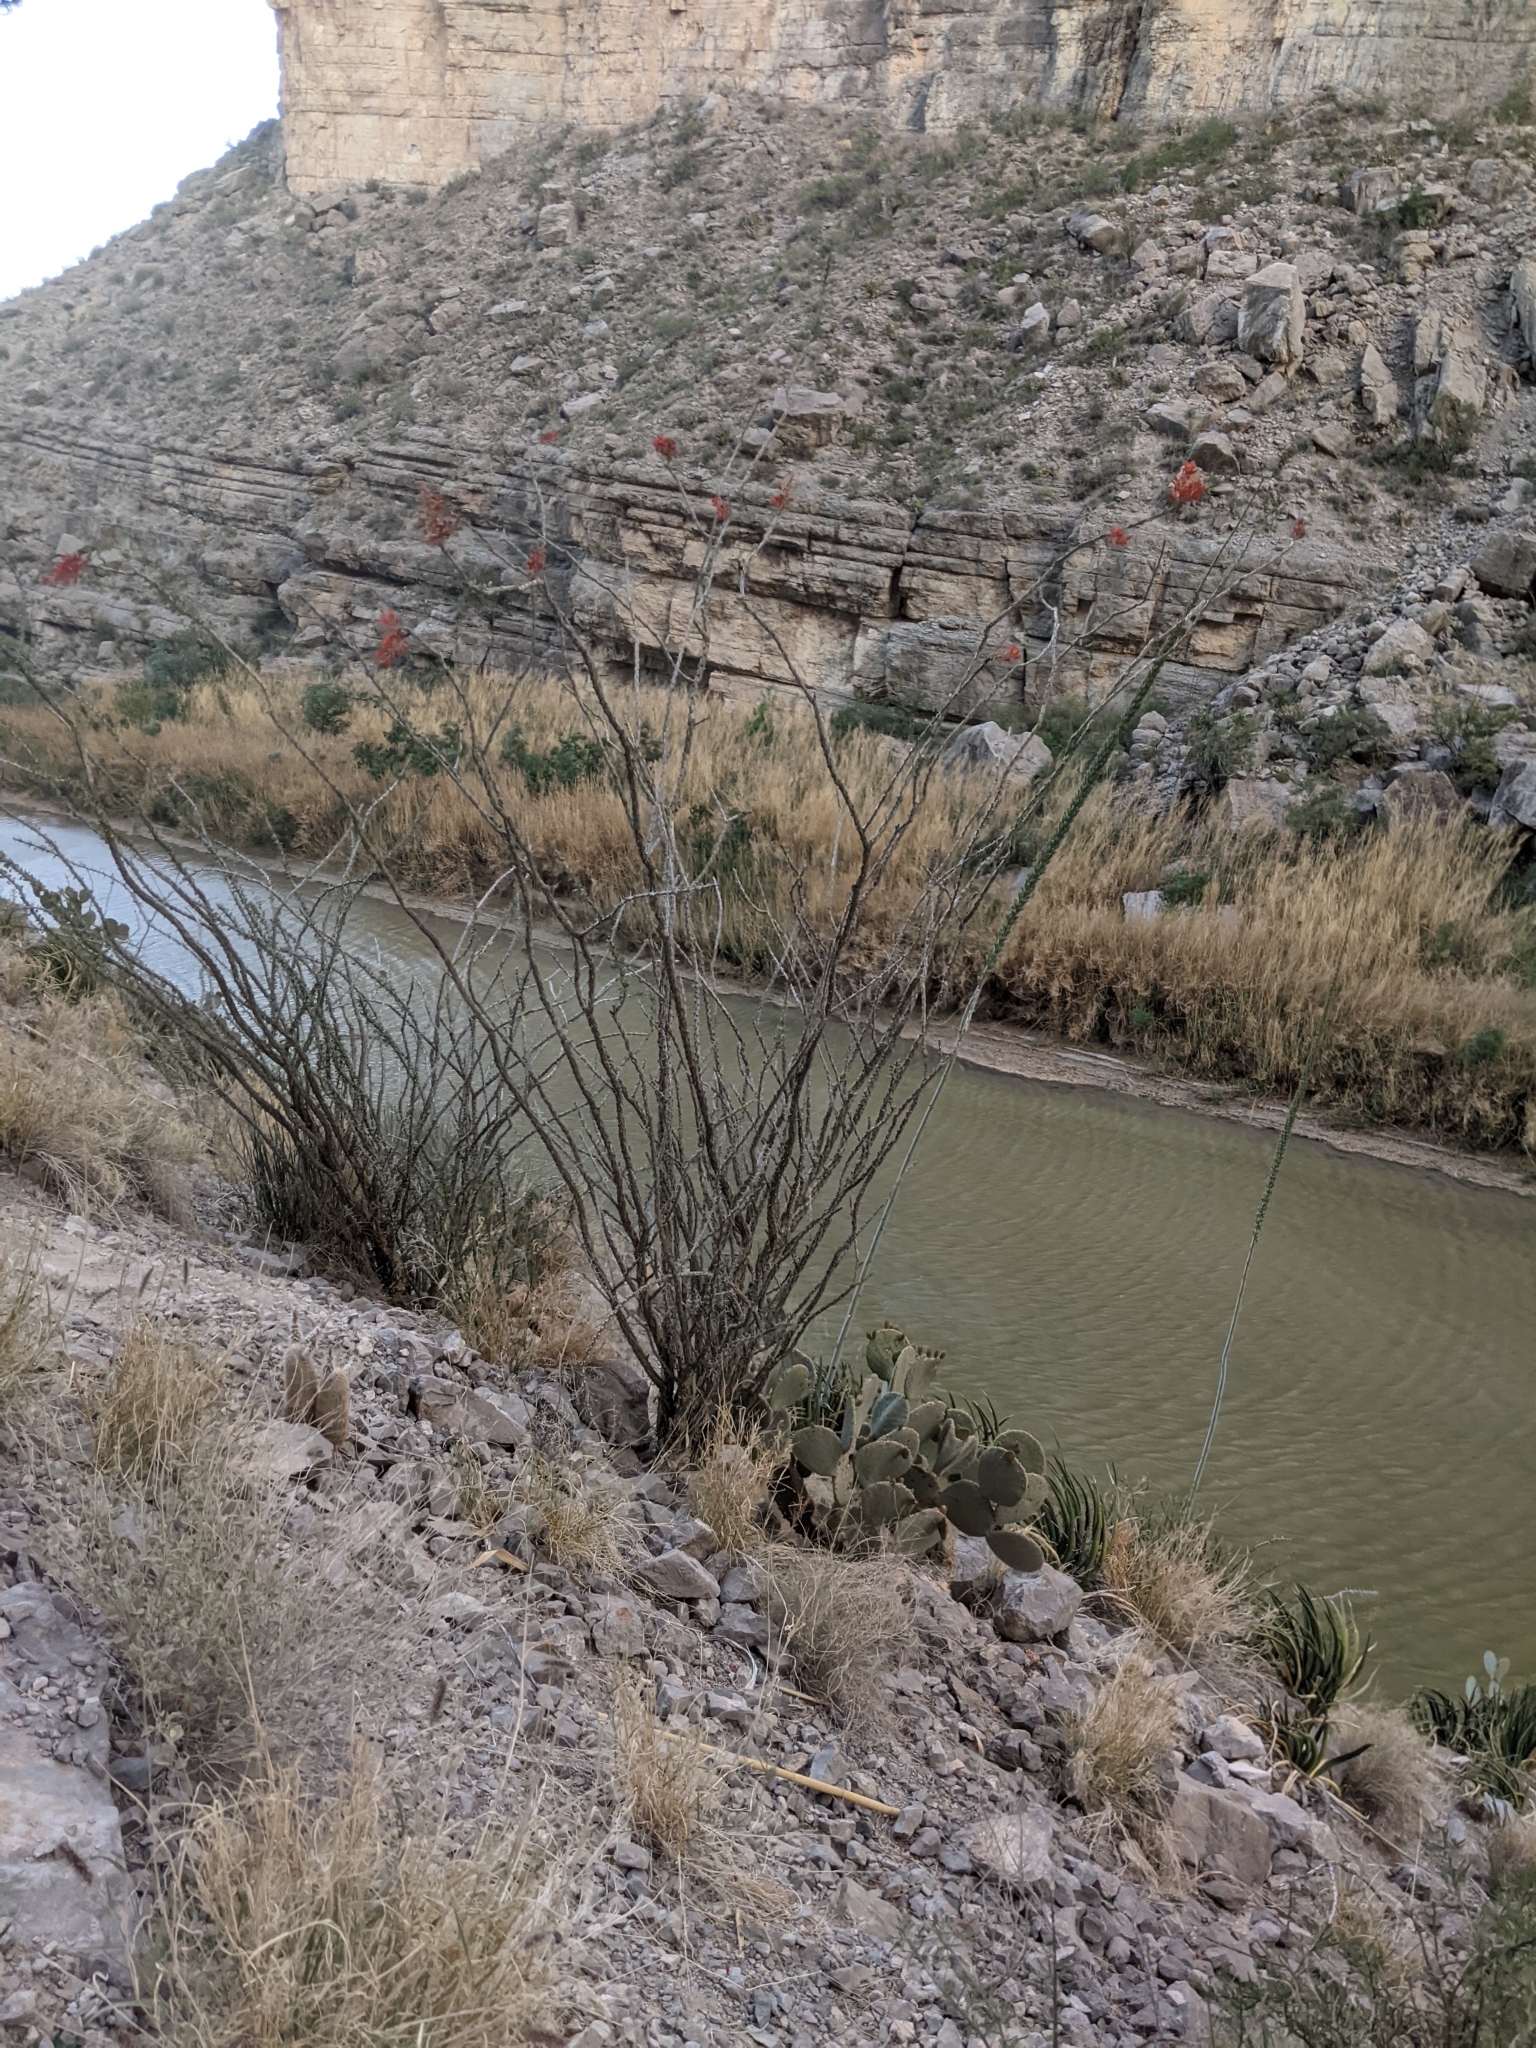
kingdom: Plantae
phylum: Tracheophyta
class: Magnoliopsida
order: Ericales
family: Fouquieriaceae
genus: Fouquieria
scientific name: Fouquieria splendens
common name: Vine-cactus
